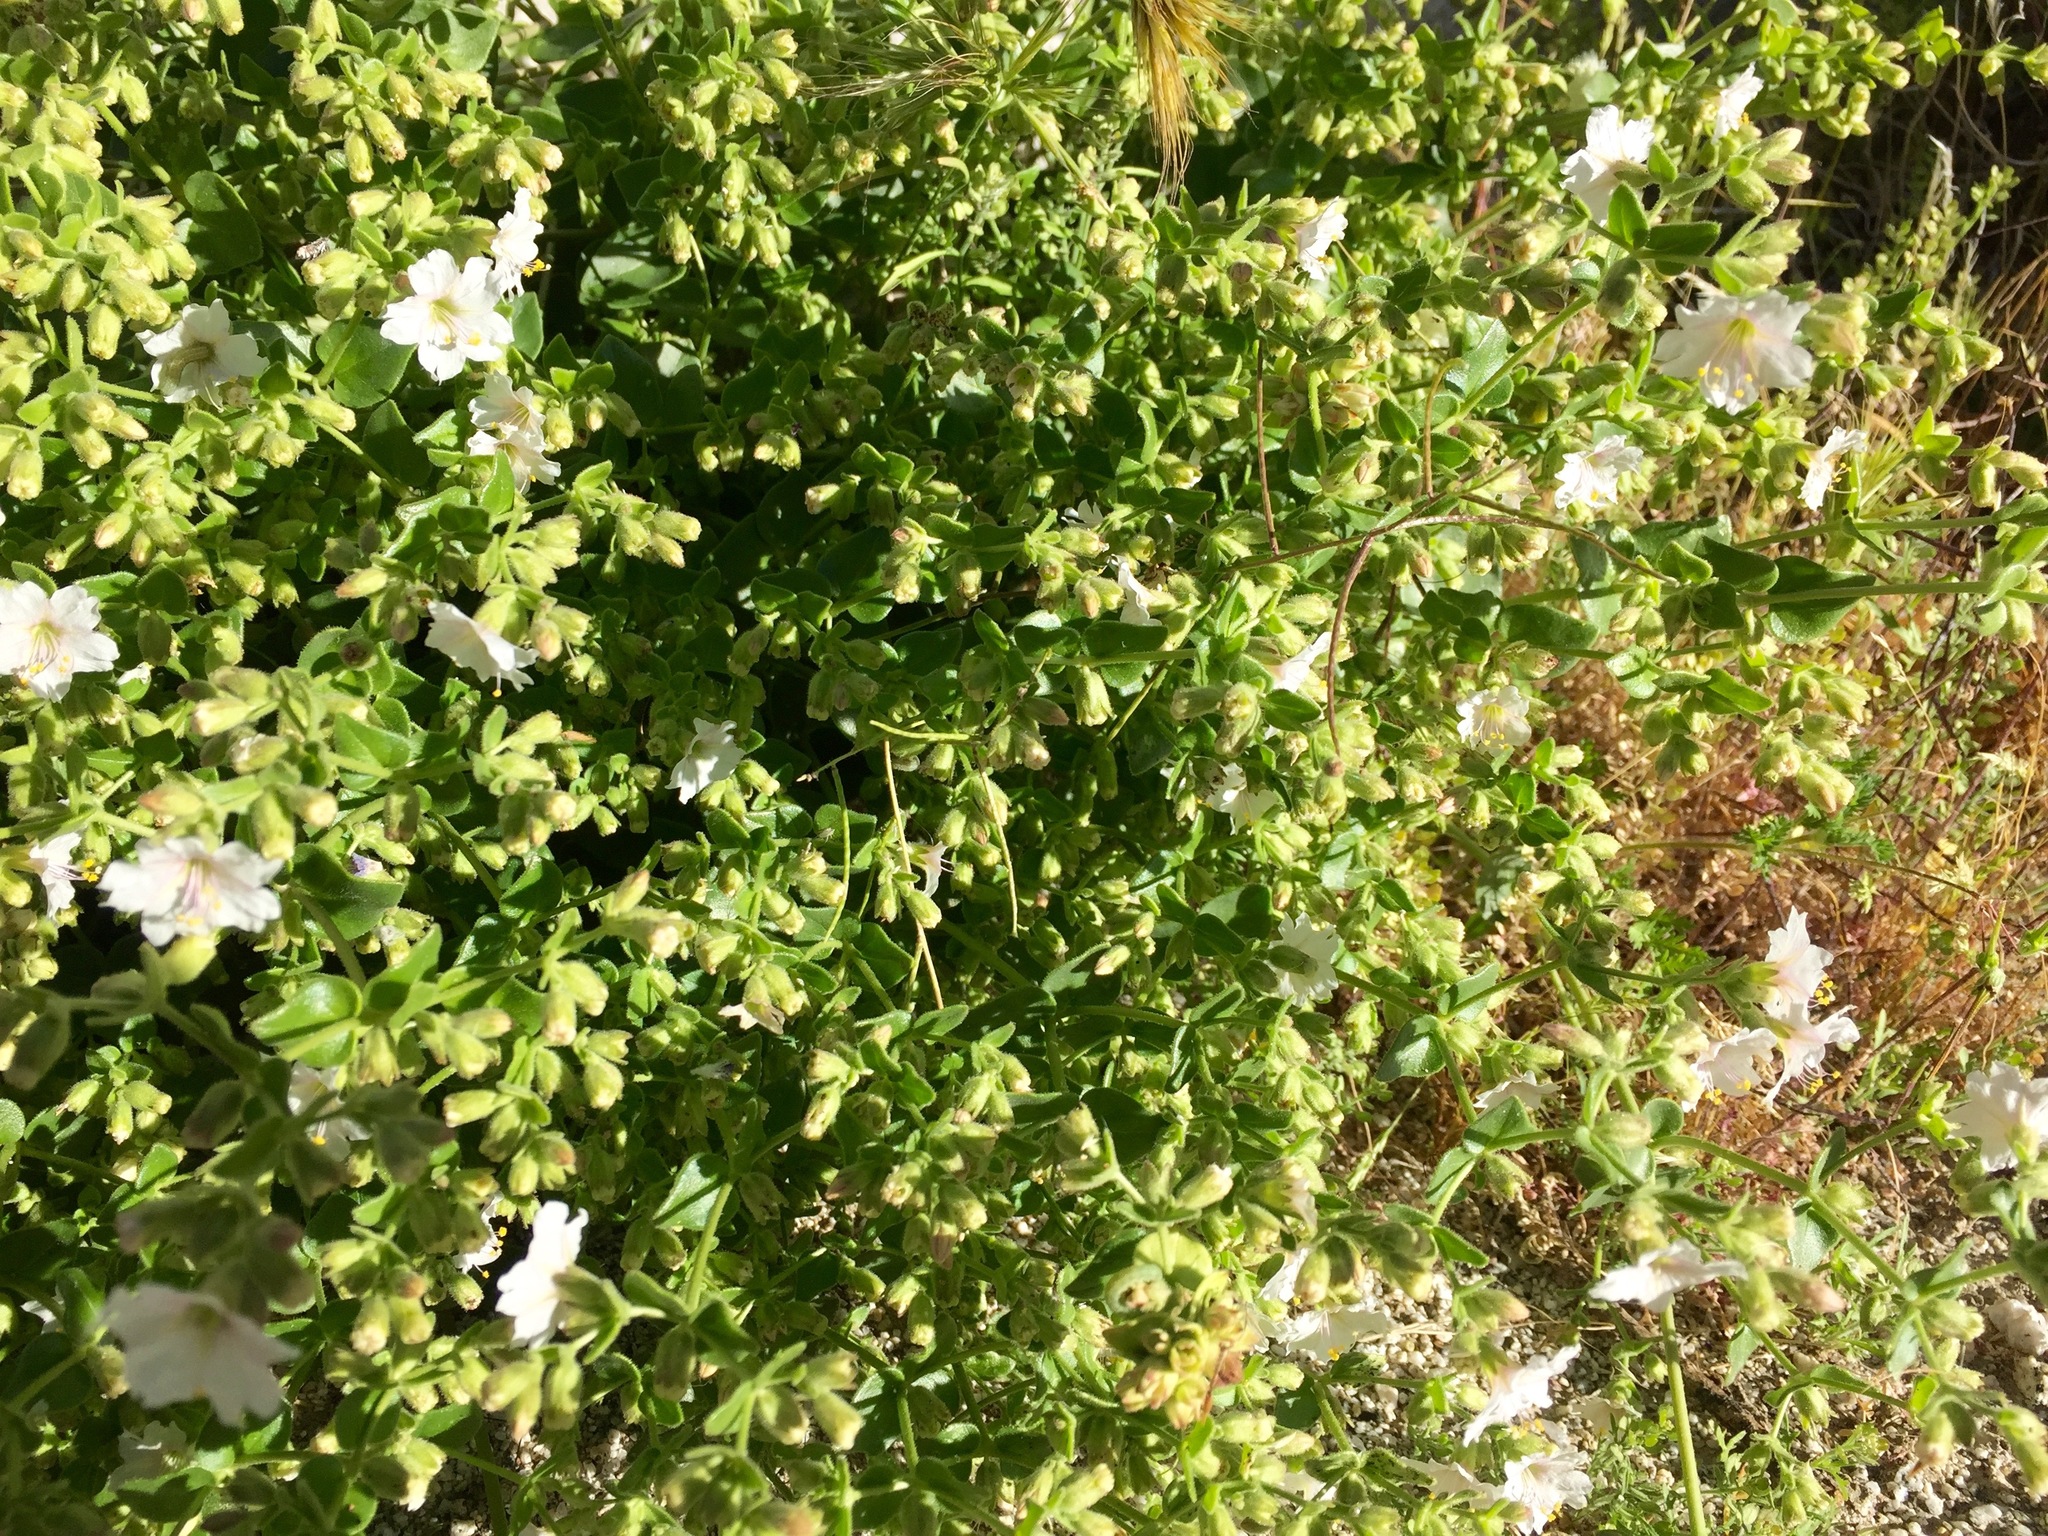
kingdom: Plantae
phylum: Tracheophyta
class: Magnoliopsida
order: Caryophyllales
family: Nyctaginaceae
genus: Mirabilis
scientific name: Mirabilis laevis
